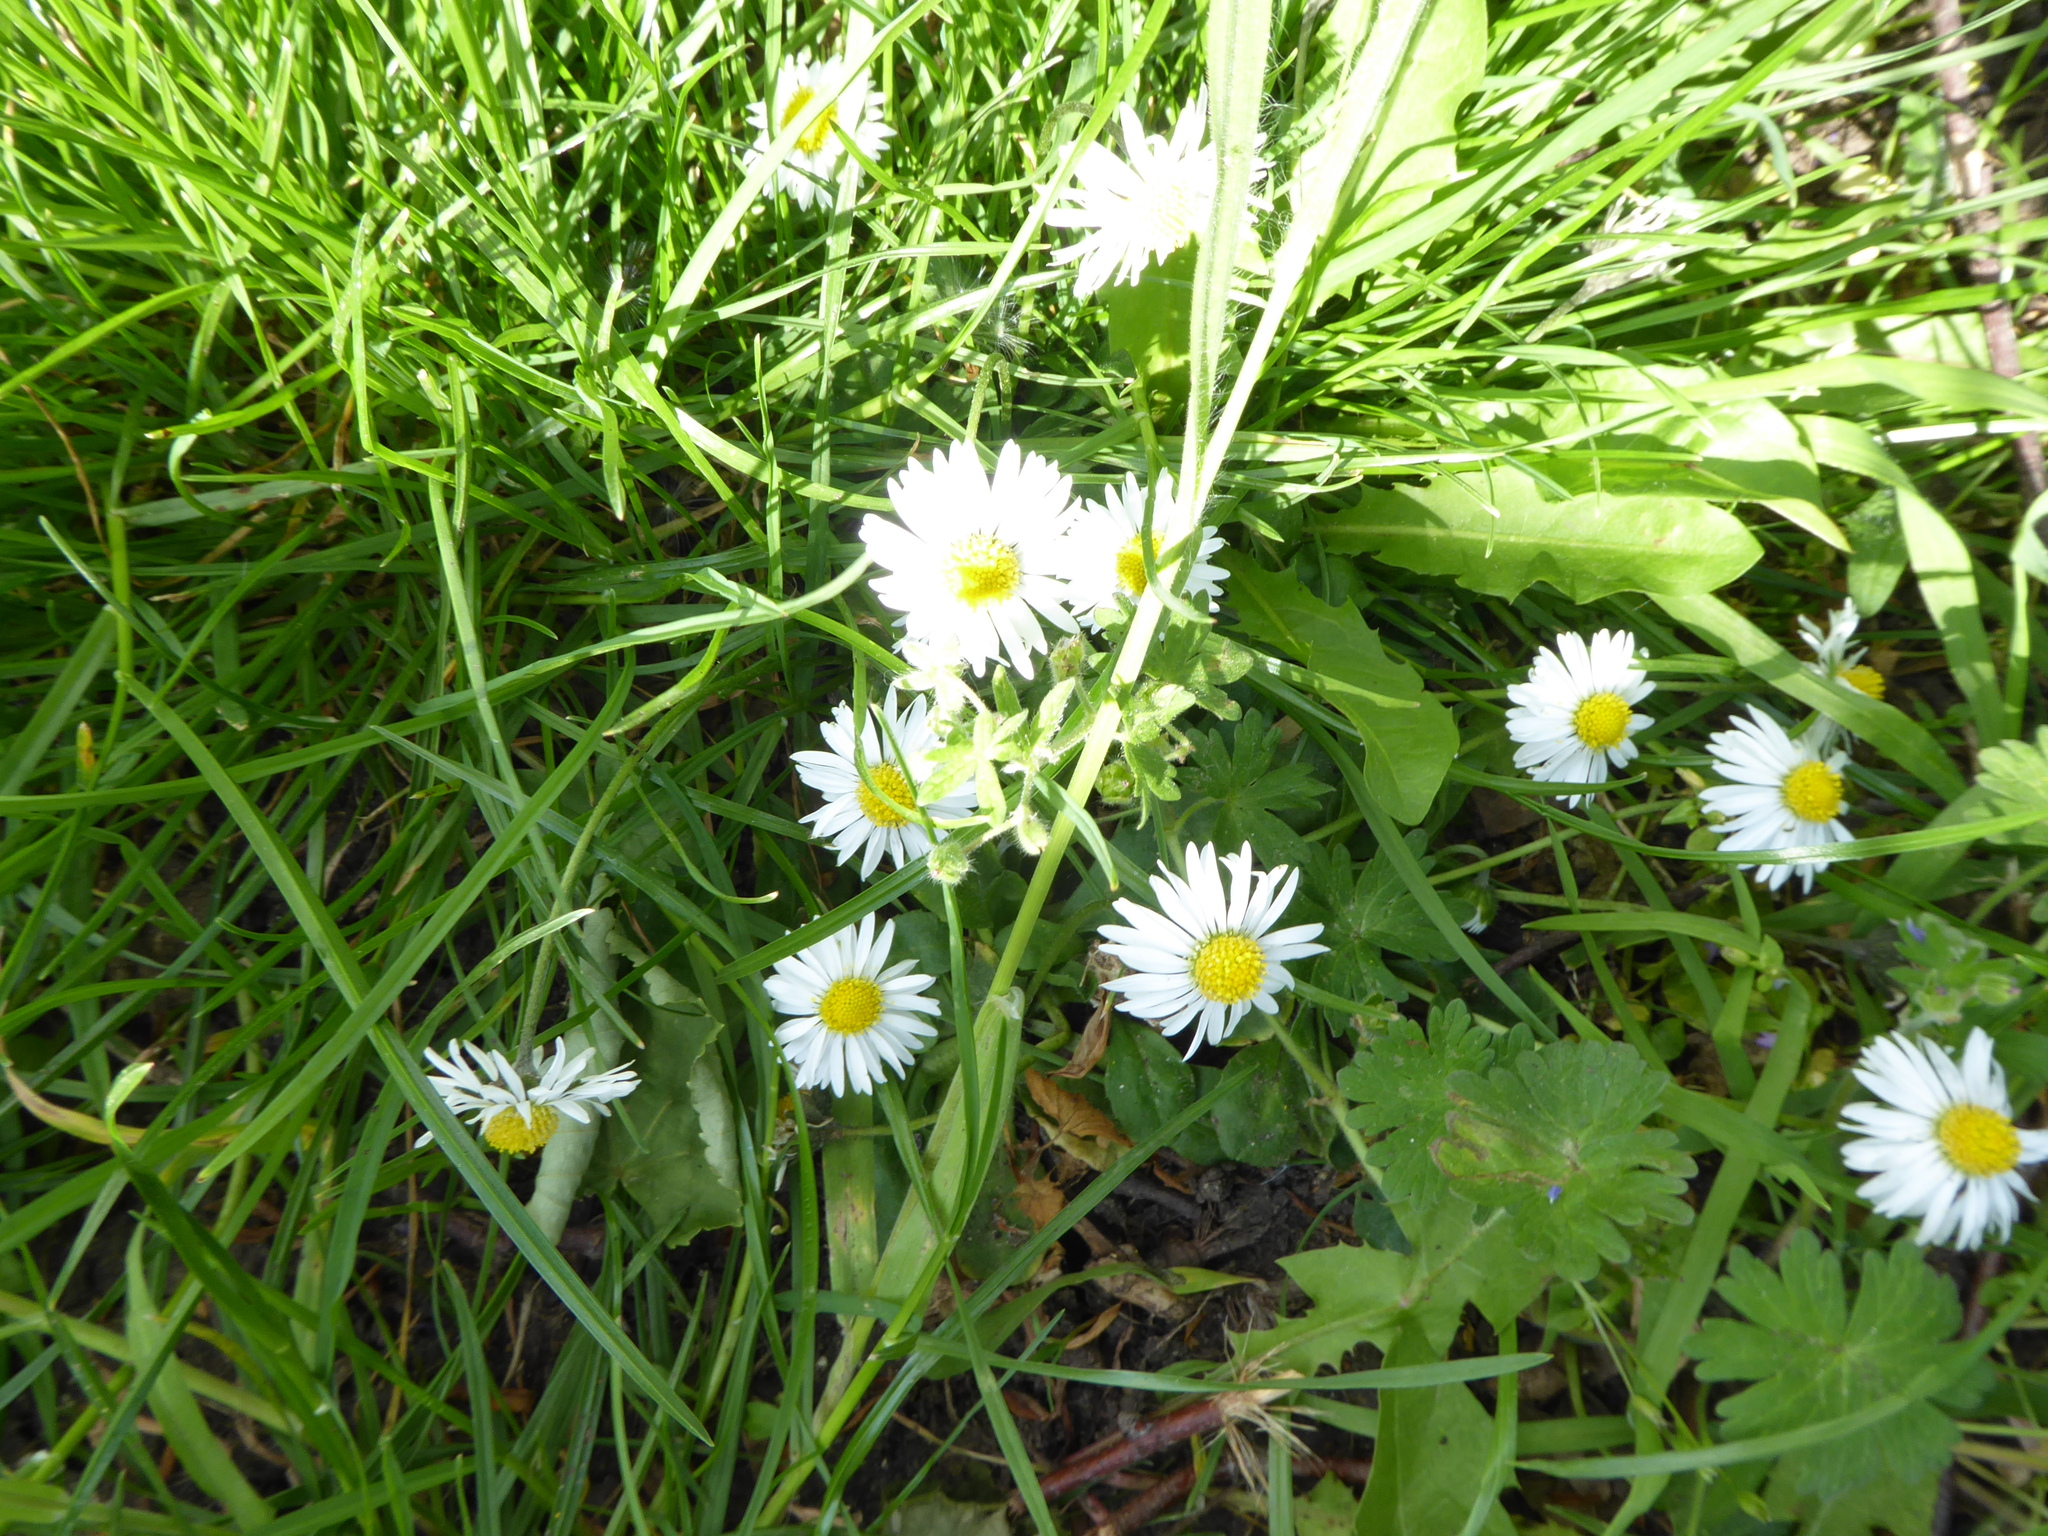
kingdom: Plantae
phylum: Tracheophyta
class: Magnoliopsida
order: Asterales
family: Asteraceae
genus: Bellis
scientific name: Bellis perennis
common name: Lawndaisy
